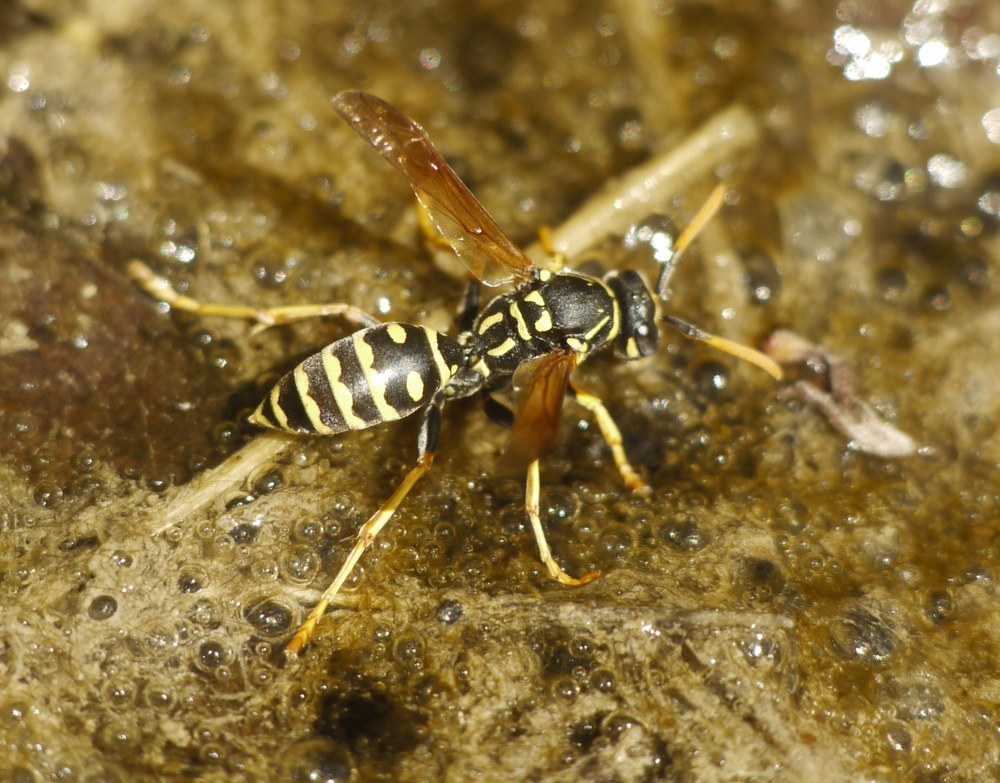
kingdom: Animalia
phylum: Arthropoda
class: Insecta
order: Hymenoptera
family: Eumenidae
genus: Polistes
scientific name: Polistes dominula
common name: Paper wasp
